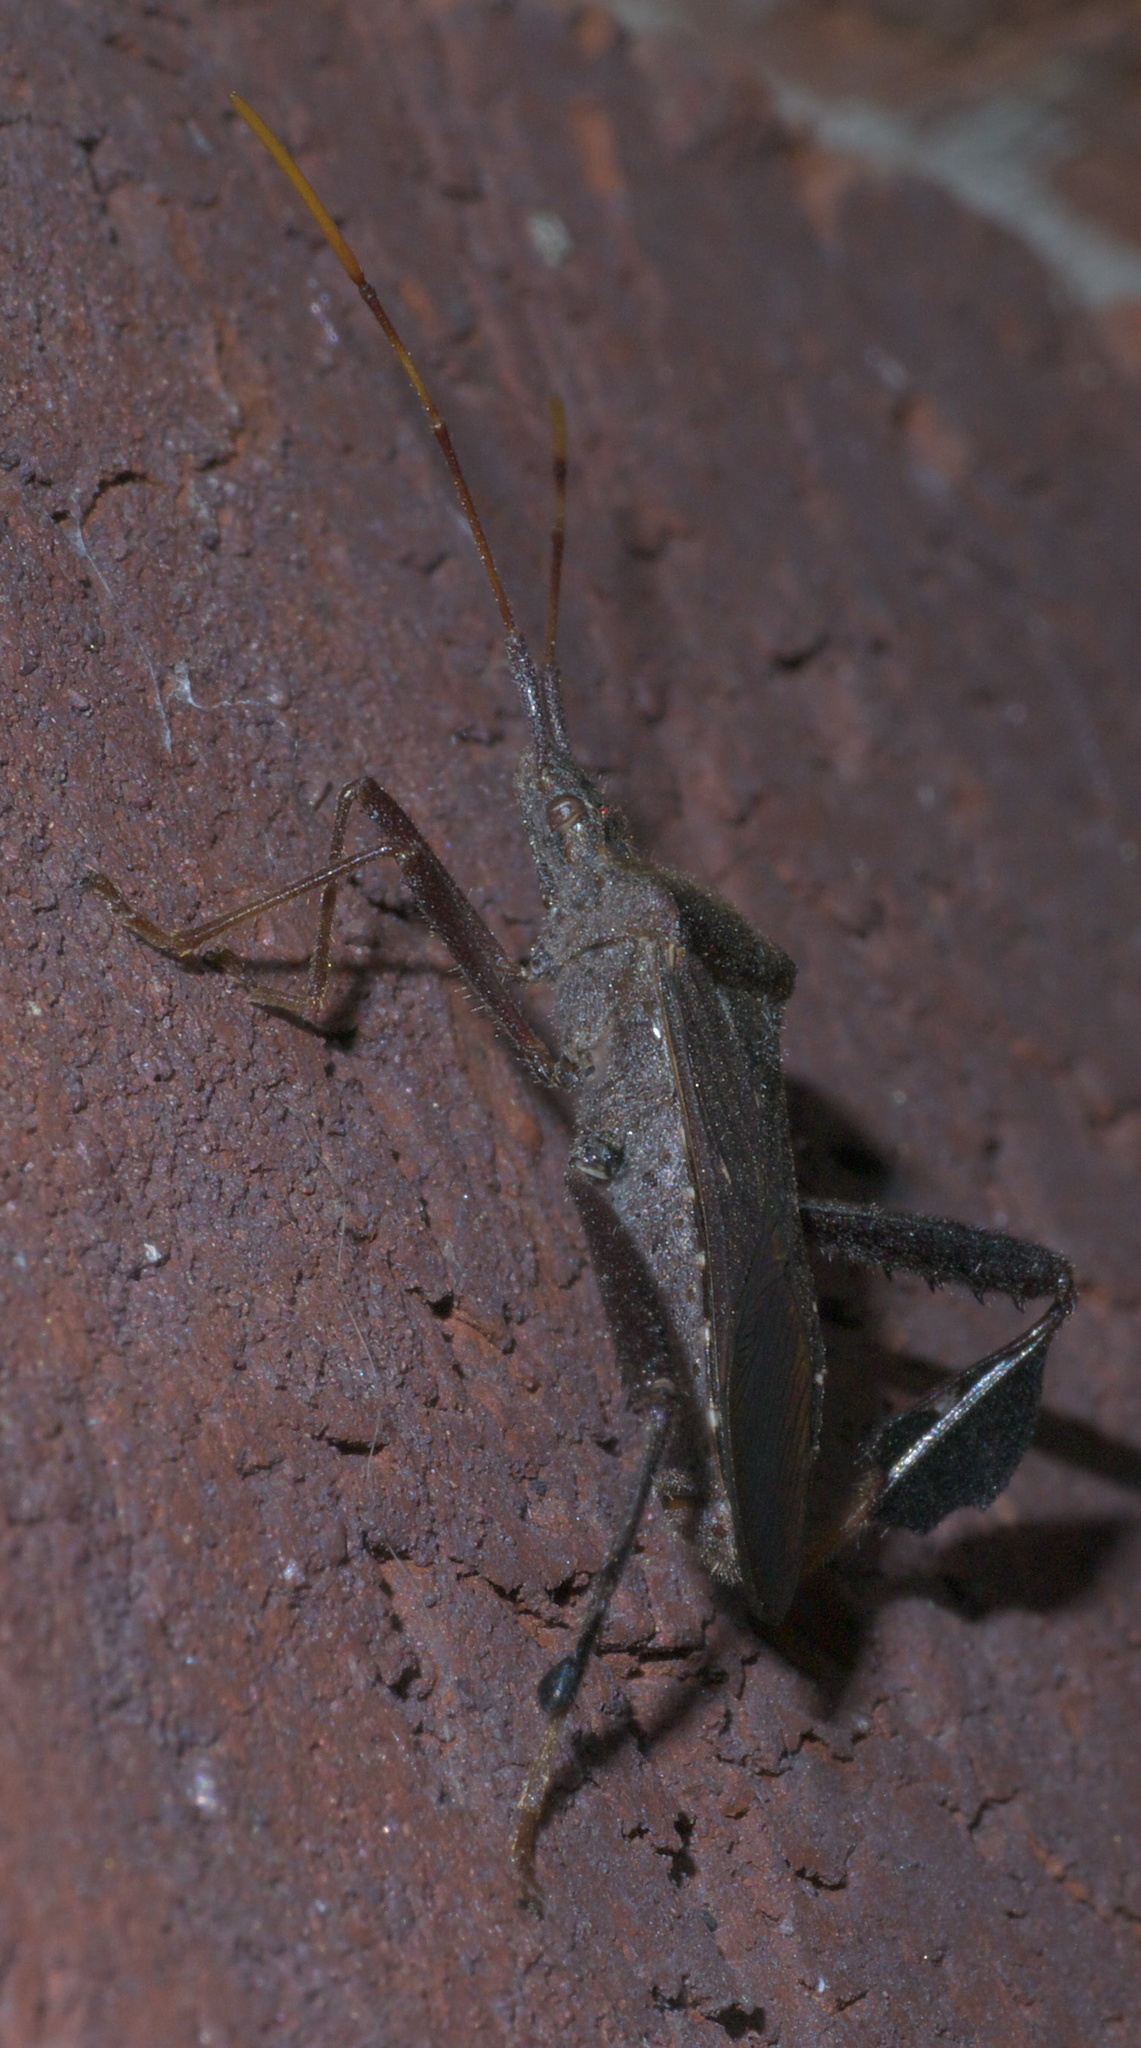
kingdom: Animalia
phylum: Arthropoda
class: Insecta
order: Hemiptera
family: Coreidae
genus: Leptoglossus
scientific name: Leptoglossus oppositus
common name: Northern leaf-footed bug
